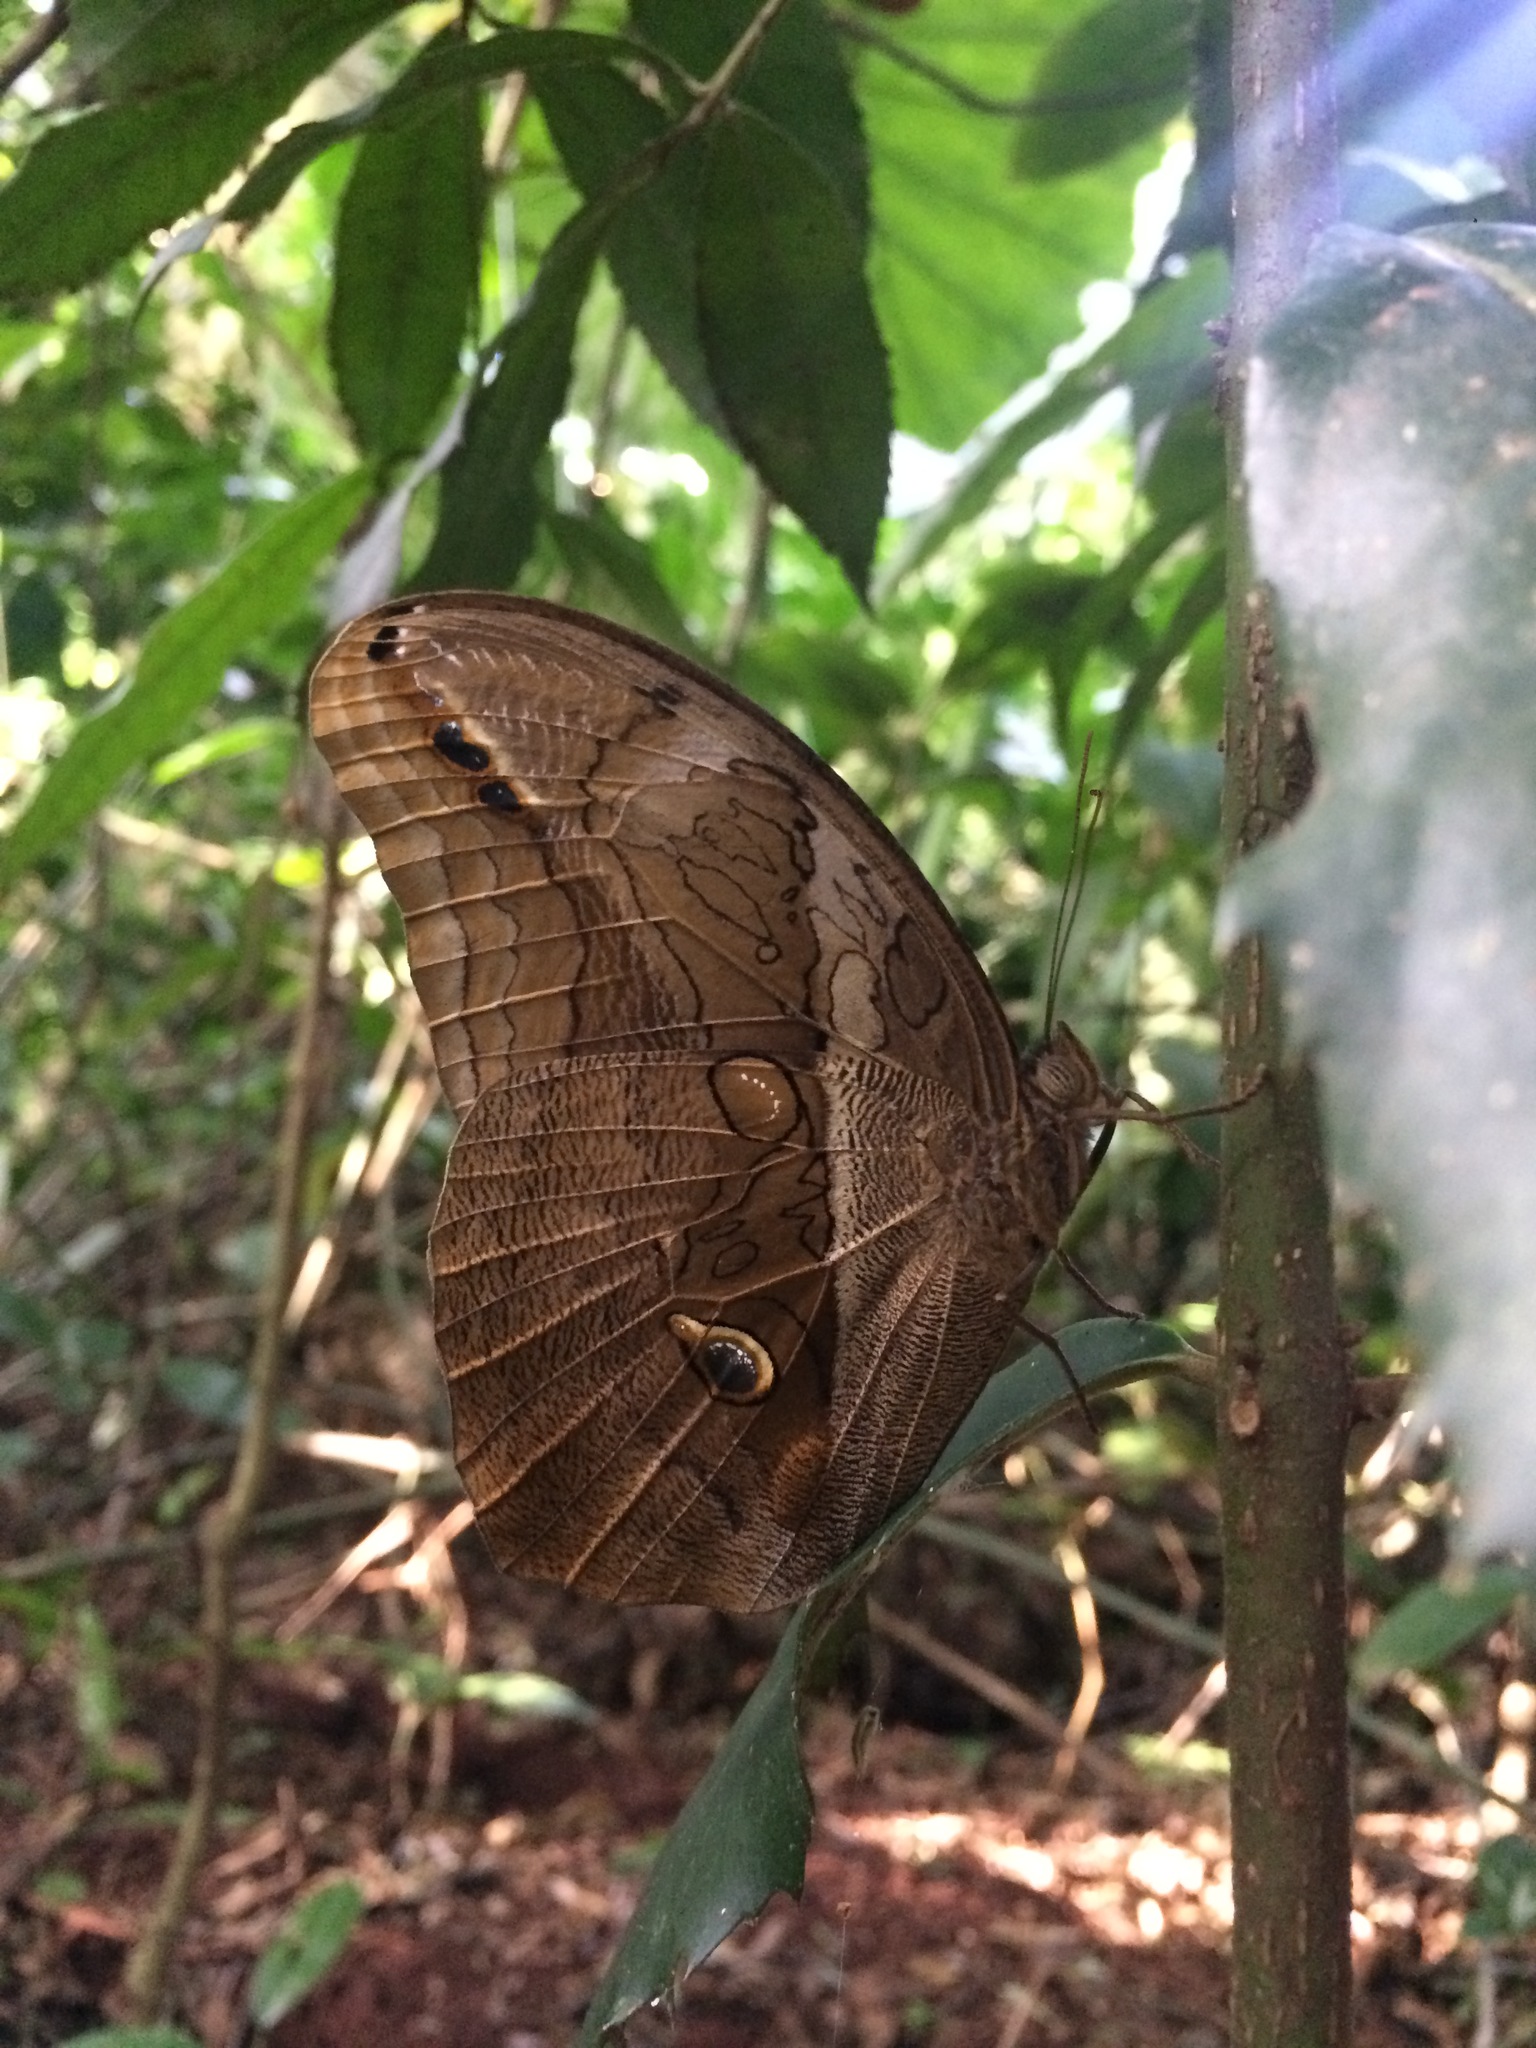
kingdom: Animalia
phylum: Arthropoda
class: Insecta
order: Lepidoptera
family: Nymphalidae
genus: Eryphanis
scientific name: Eryphanis polyxena
